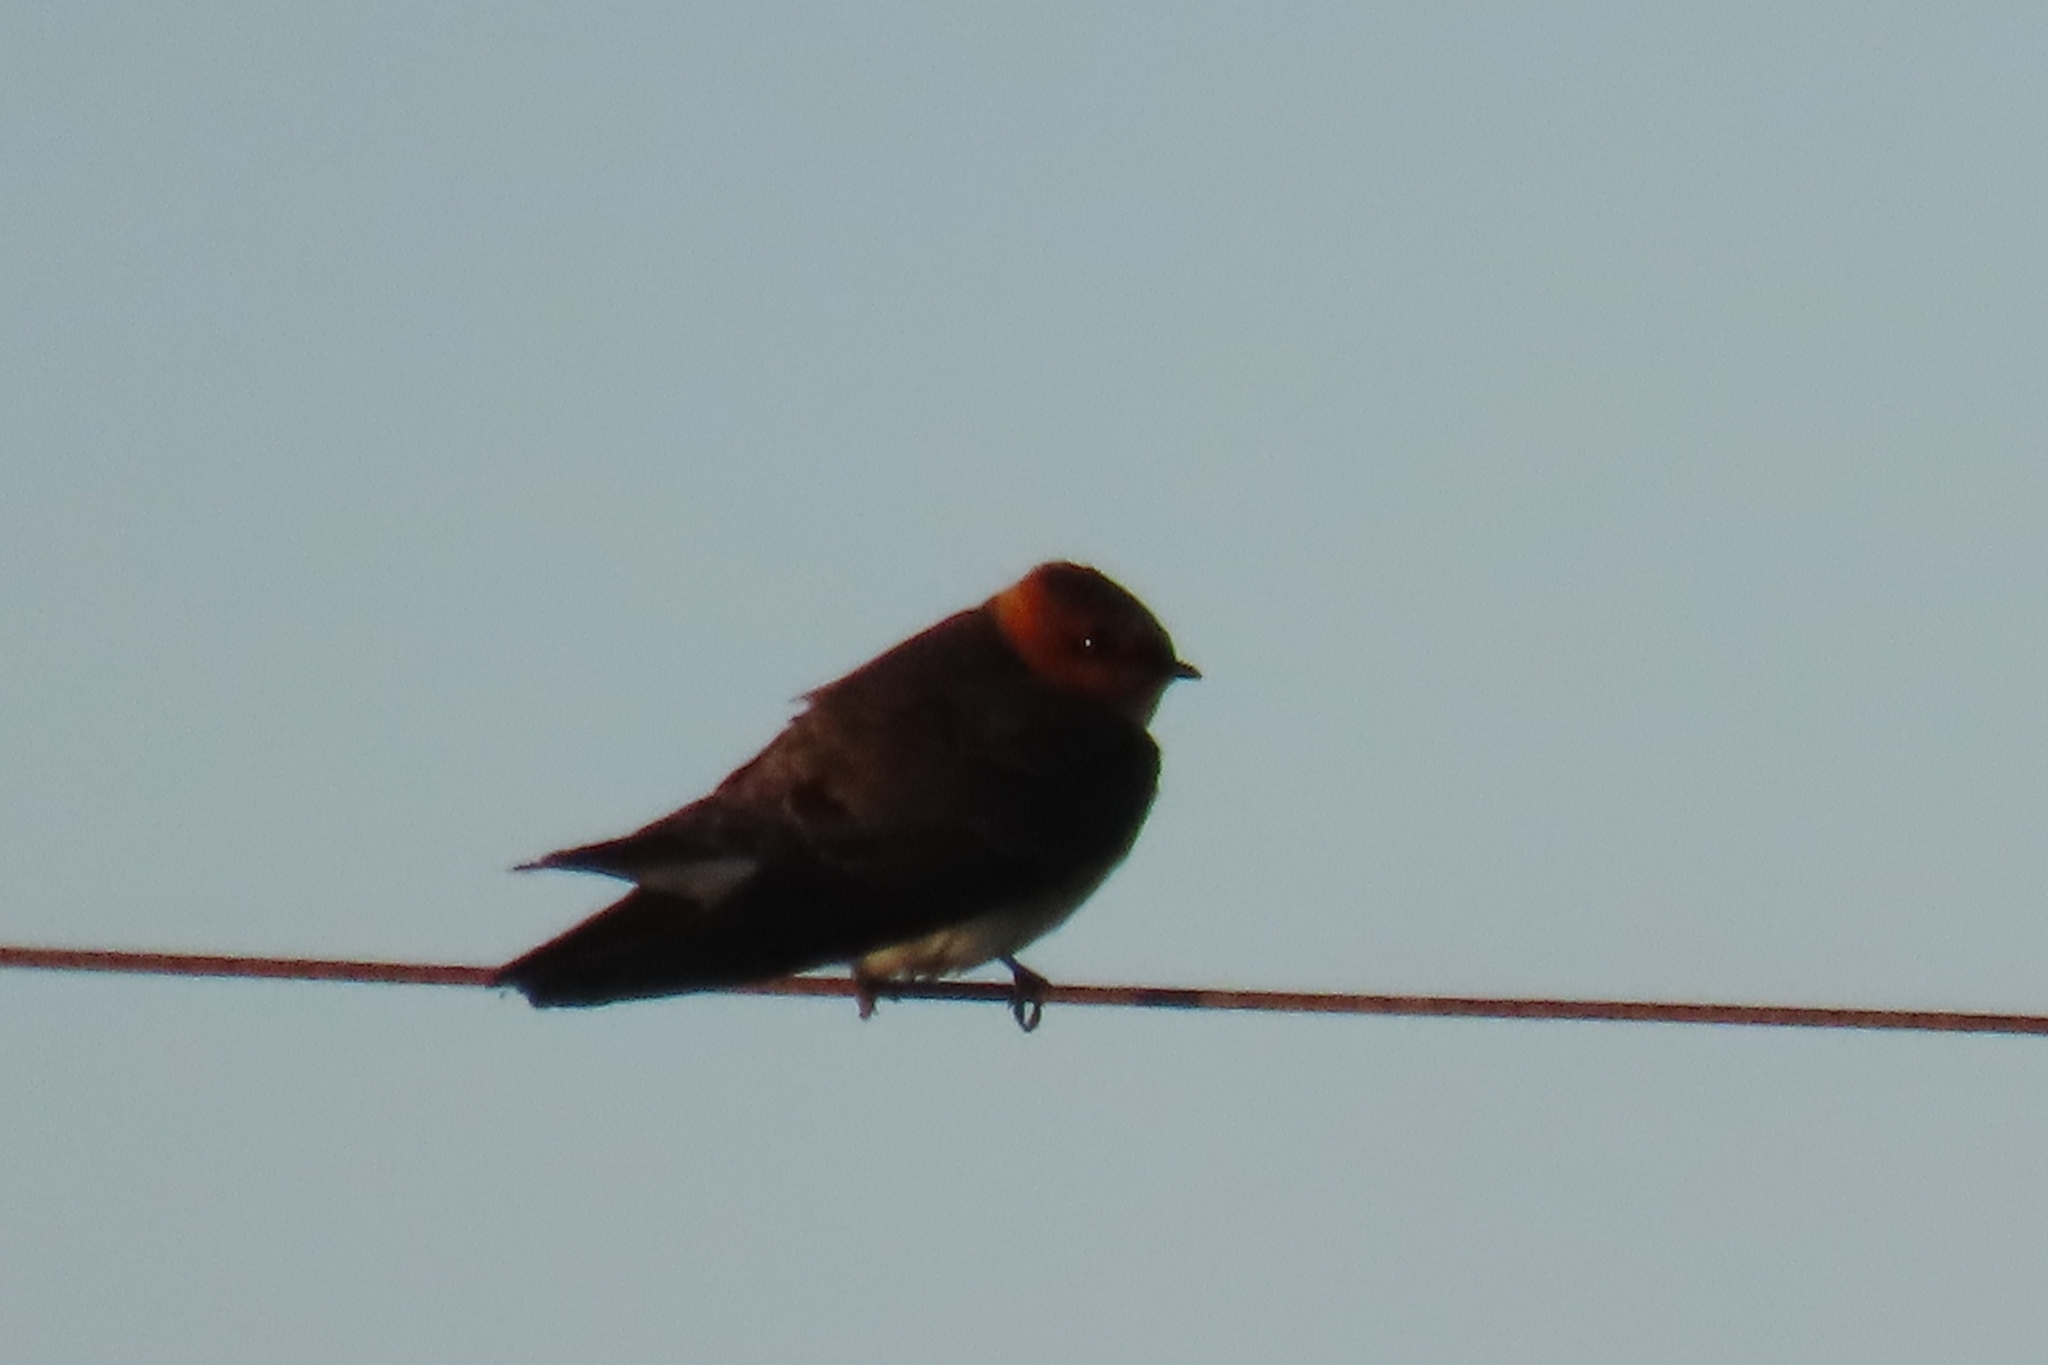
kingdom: Animalia
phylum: Chordata
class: Aves
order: Passeriformes
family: Hirundinidae
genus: Alopochelidon
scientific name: Alopochelidon fucata
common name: Tawny-headed swallow
